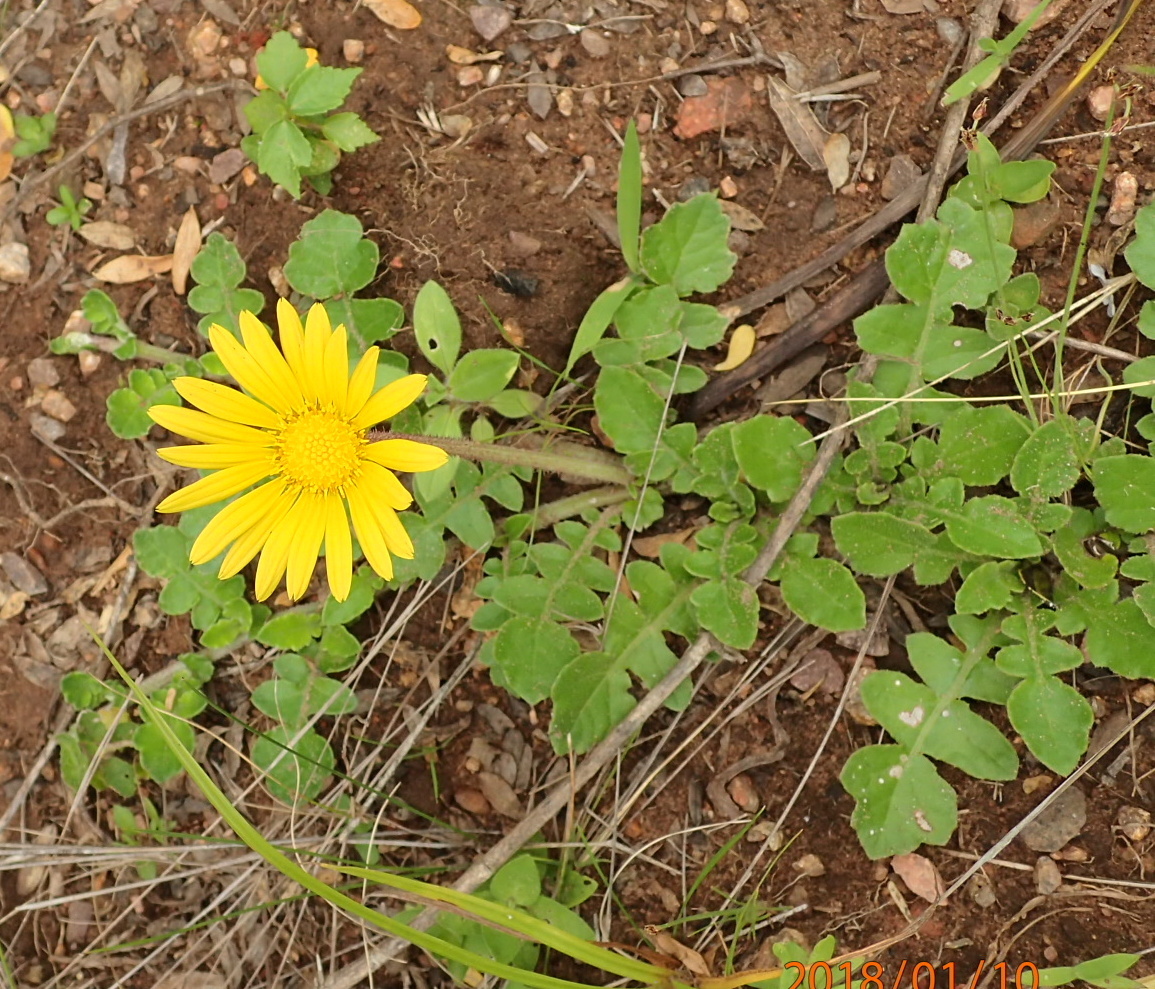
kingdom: Plantae
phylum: Tracheophyta
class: Magnoliopsida
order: Asterales
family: Asteraceae
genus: Arctotheca
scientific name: Arctotheca prostrata
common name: Capeweed
